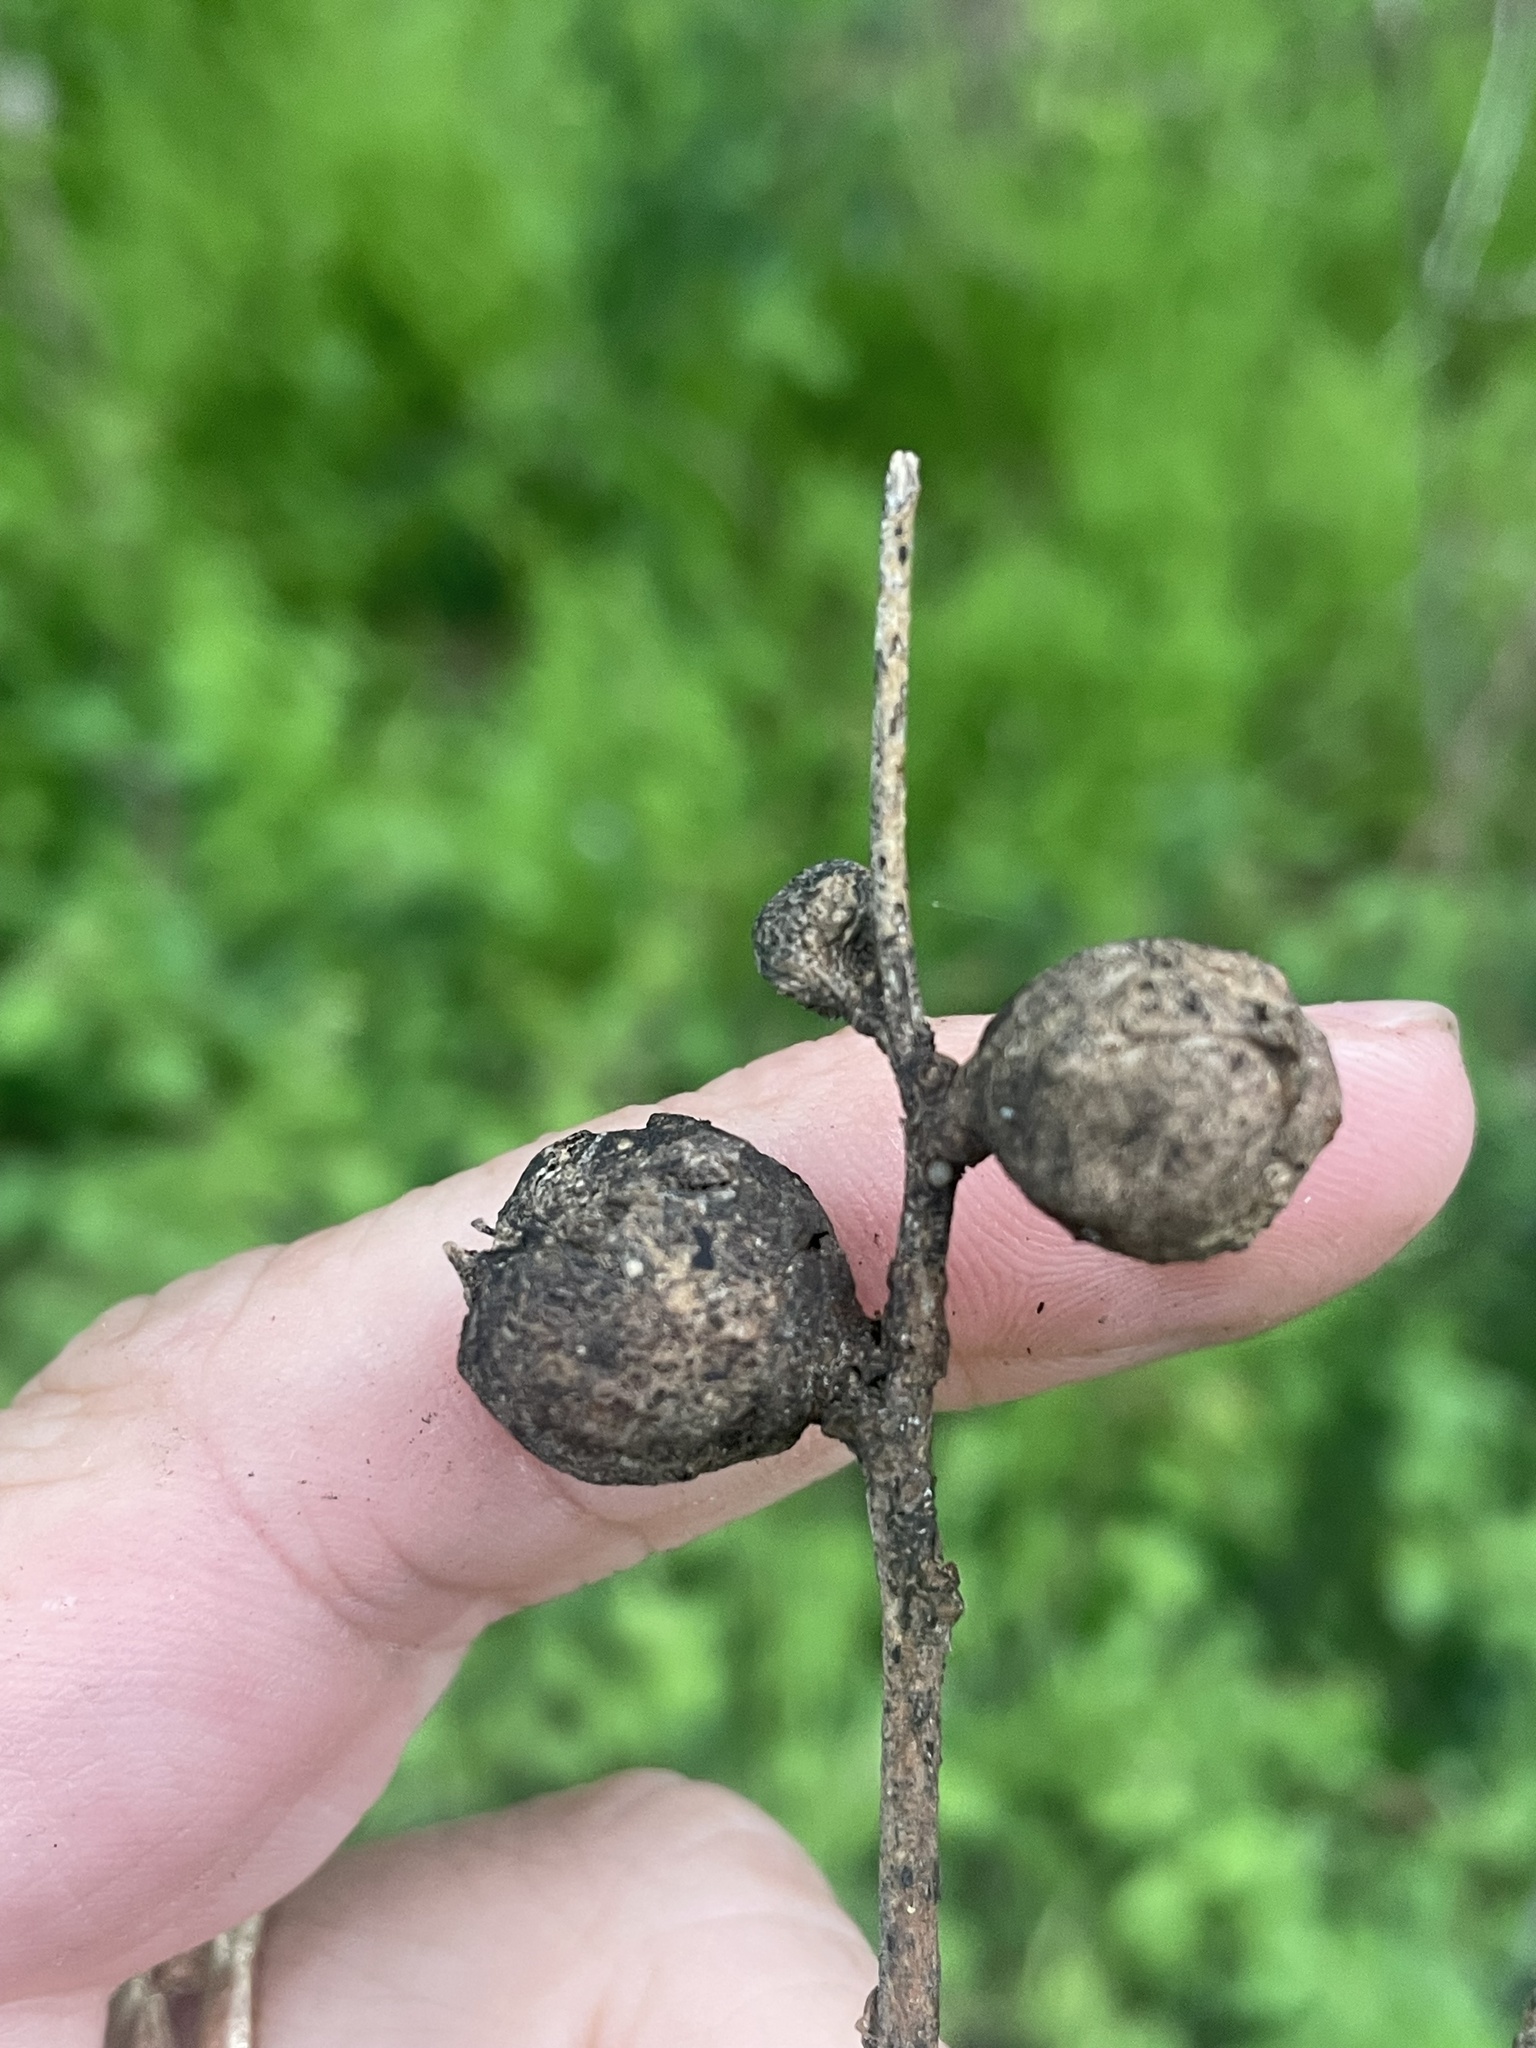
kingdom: Animalia
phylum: Arthropoda
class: Insecta
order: Hemiptera
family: Aphalaridae
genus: Pachypsylla
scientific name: Pachypsylla venusta
